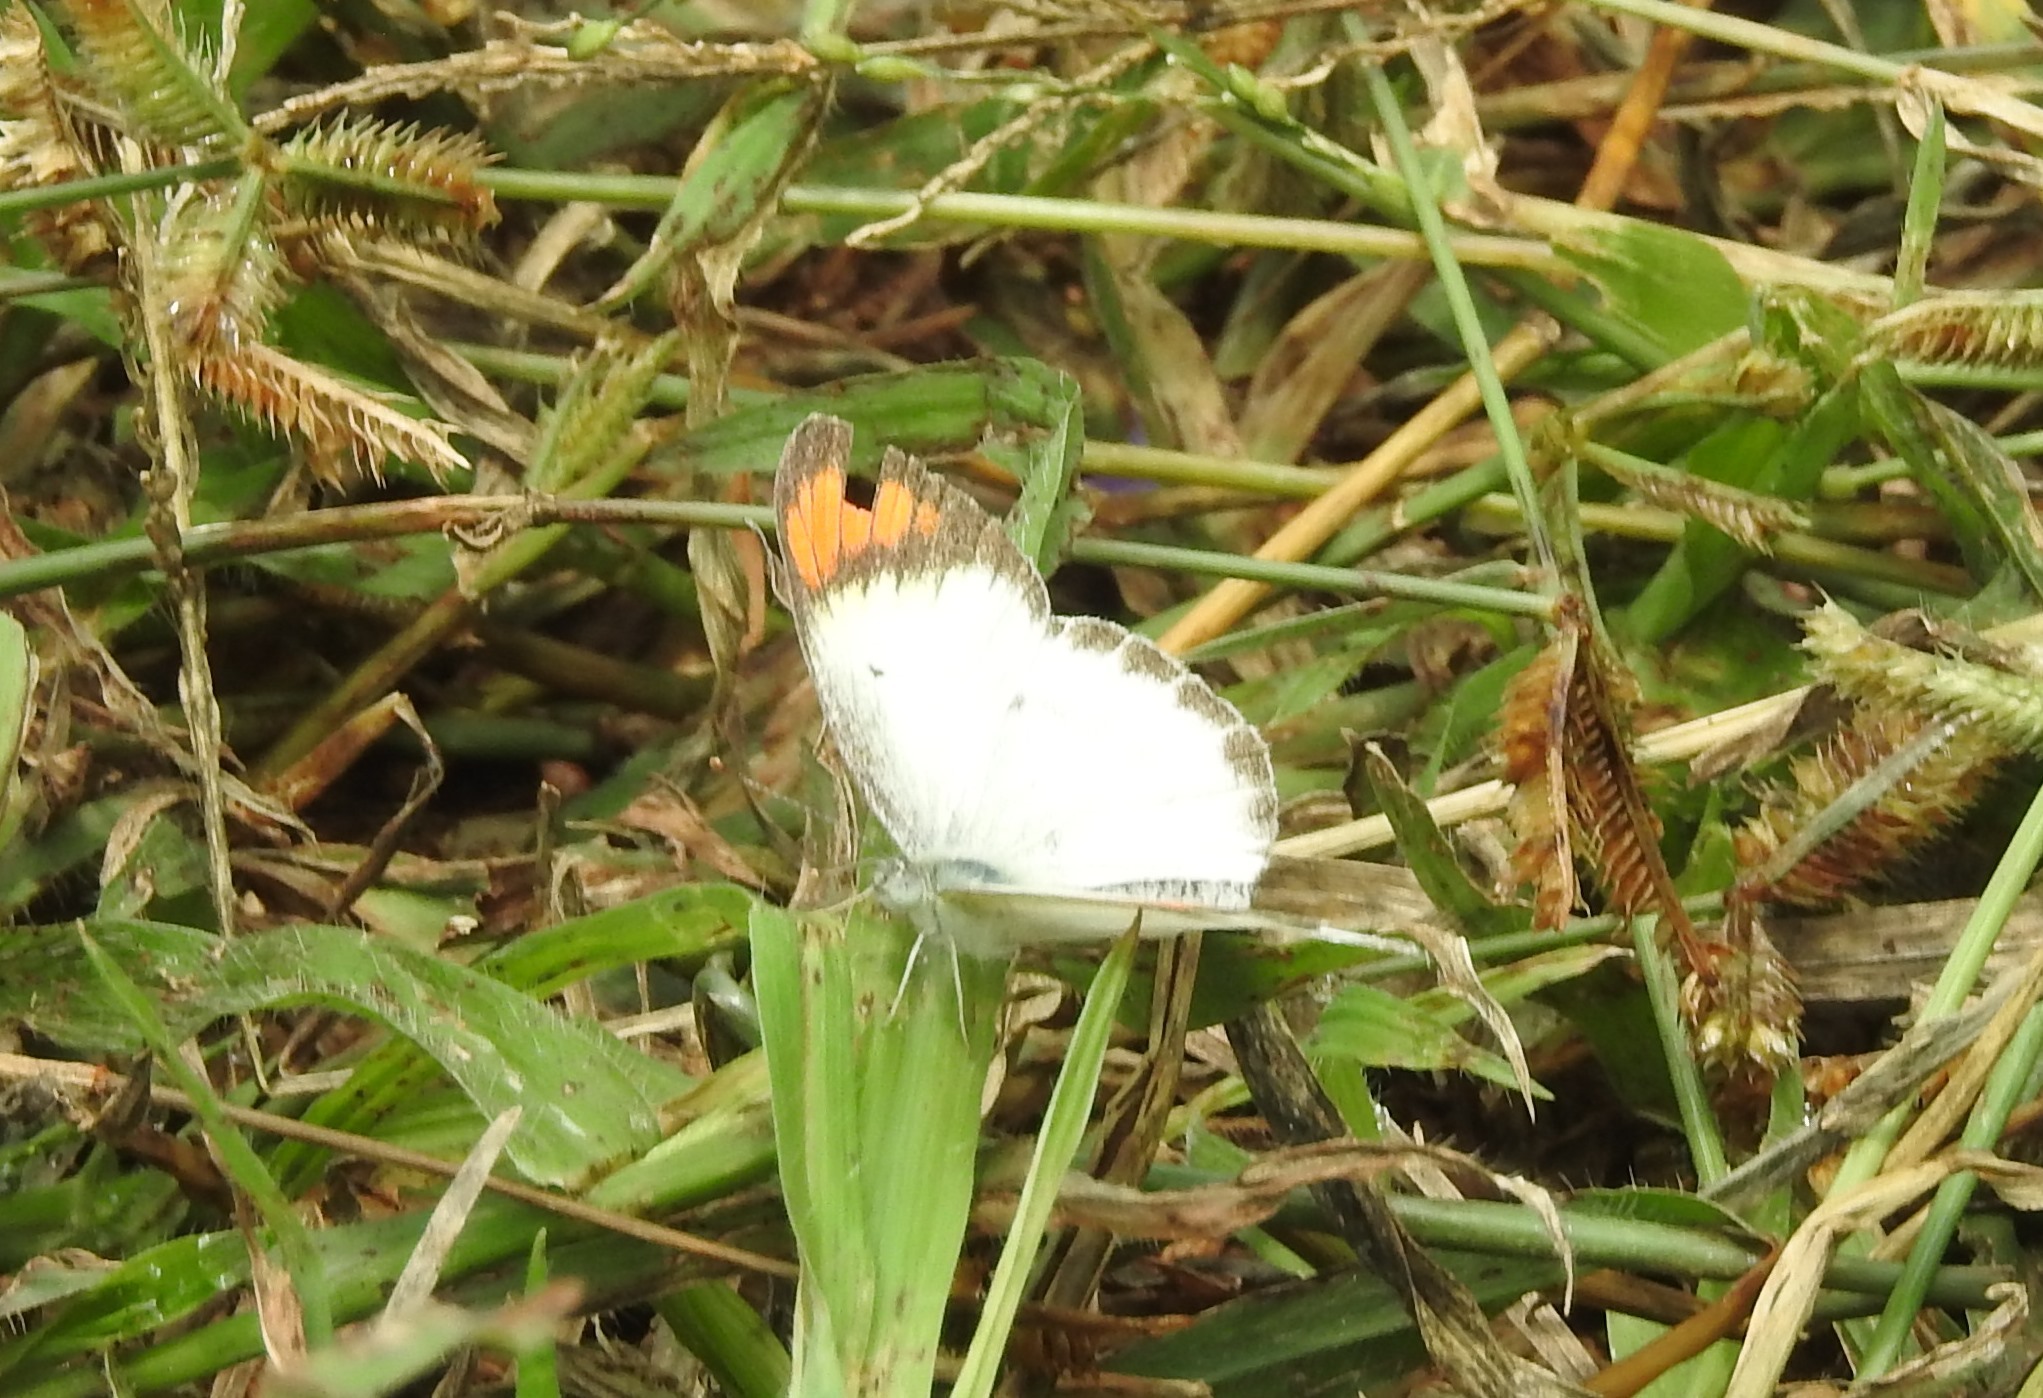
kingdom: Animalia
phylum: Arthropoda
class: Insecta
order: Lepidoptera
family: Pieridae
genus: Colotis
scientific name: Colotis etrida
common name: Little orange tip
